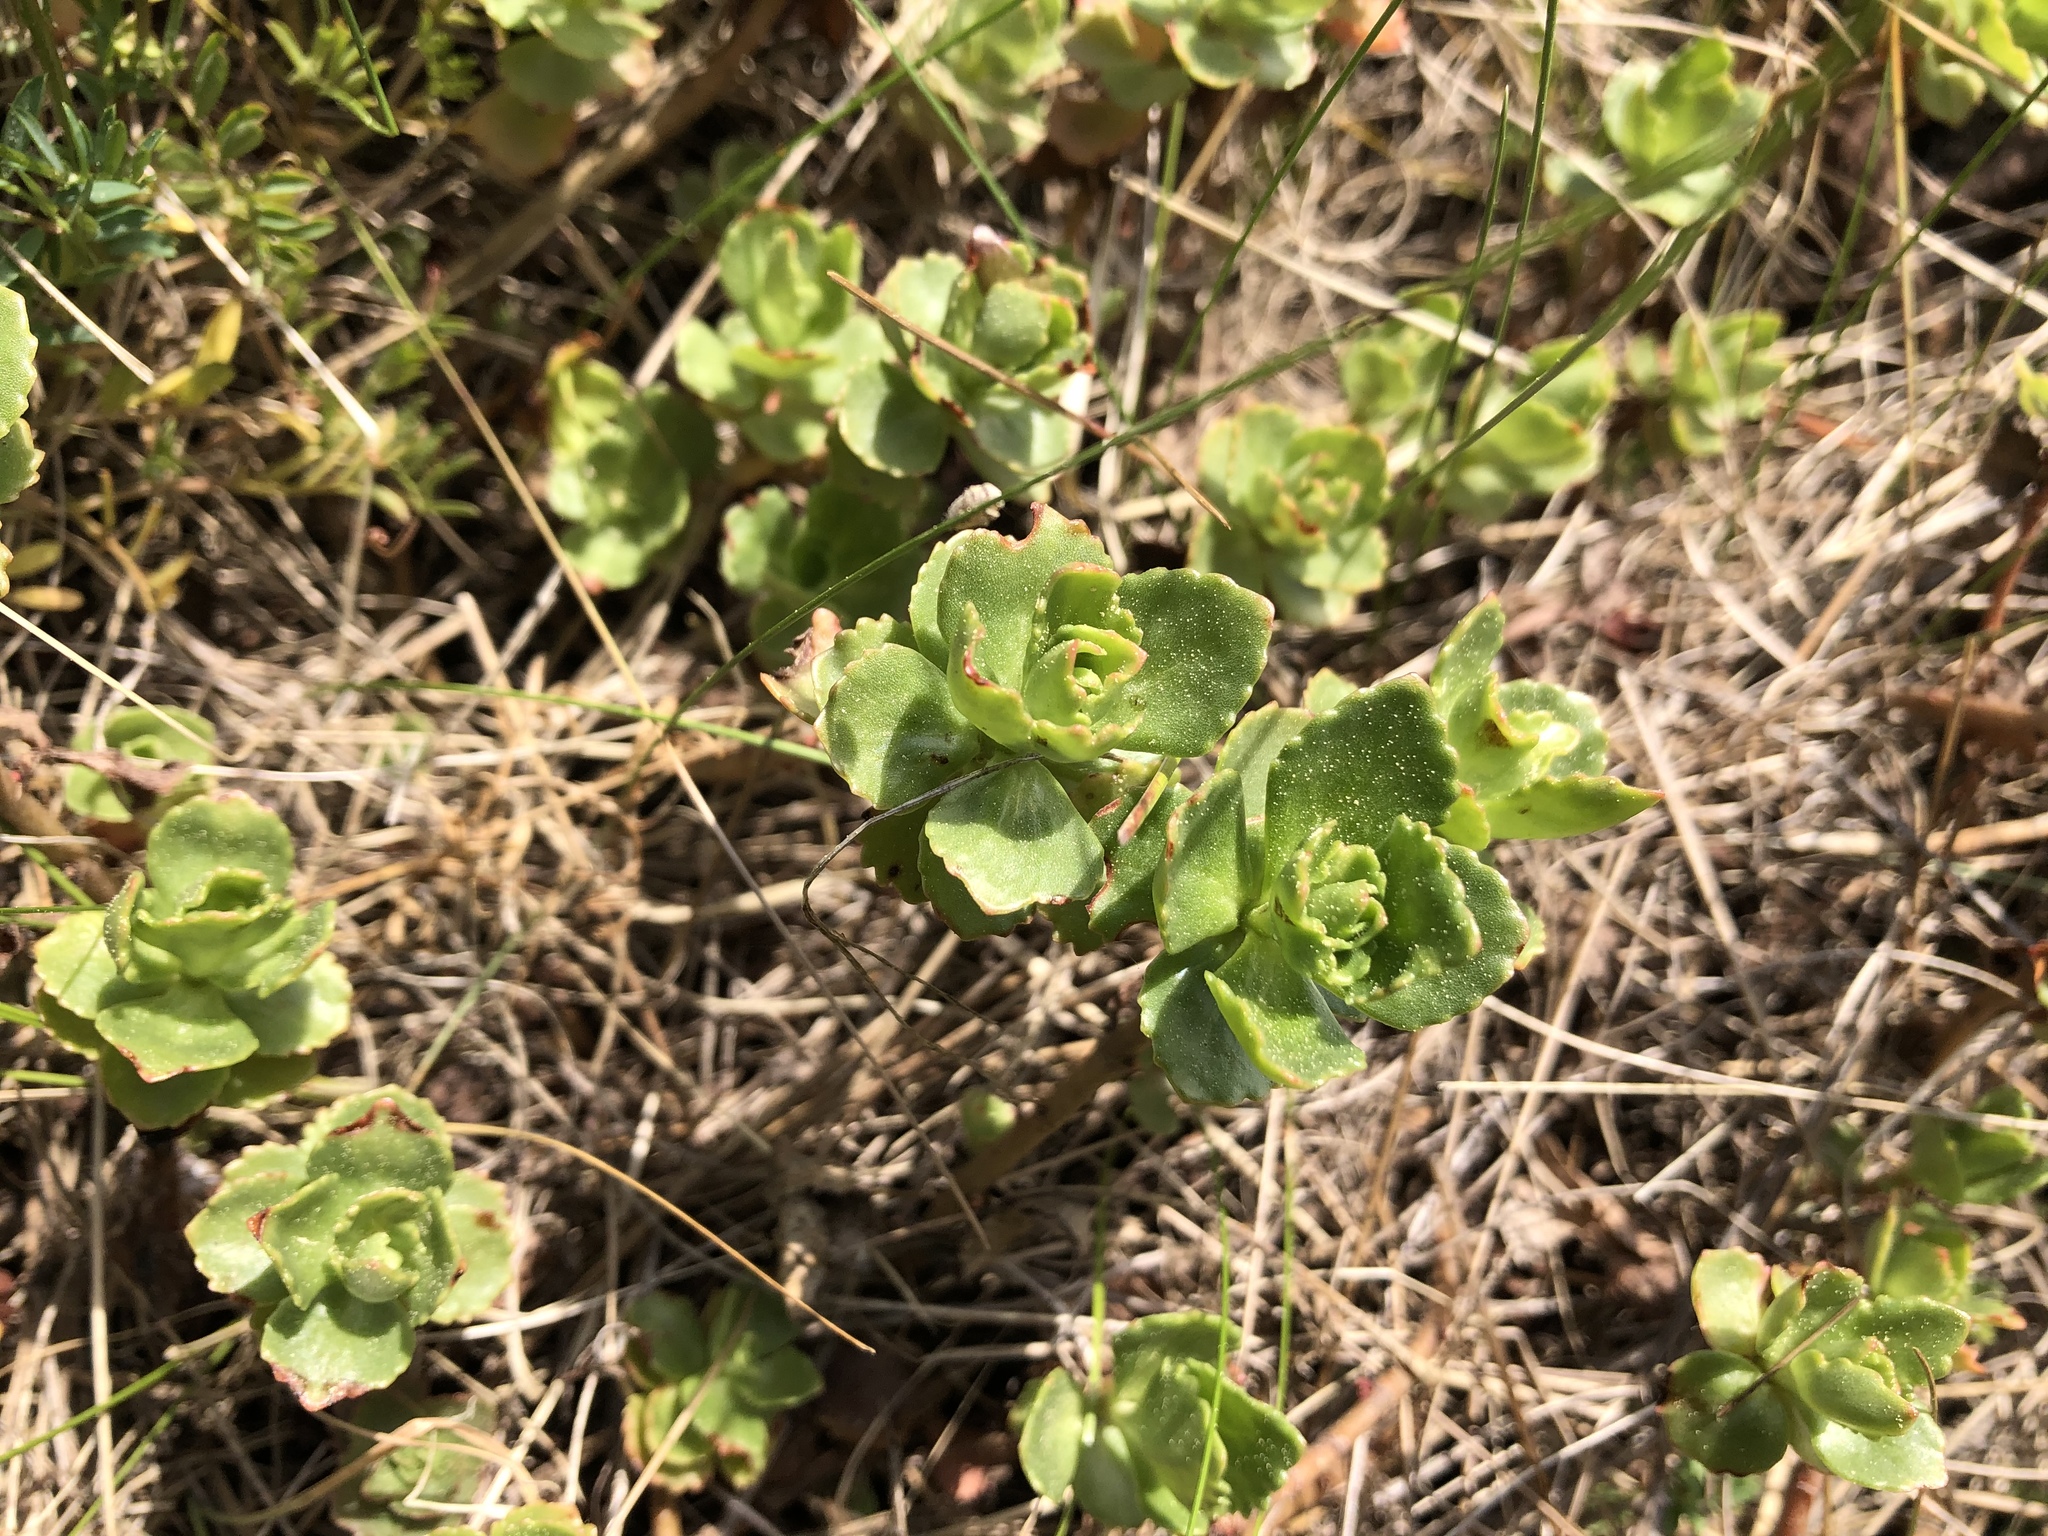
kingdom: Plantae
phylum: Tracheophyta
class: Magnoliopsida
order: Saxifragales
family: Crassulaceae
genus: Phedimus
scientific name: Phedimus spurius
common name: Caucasian stonecrop
